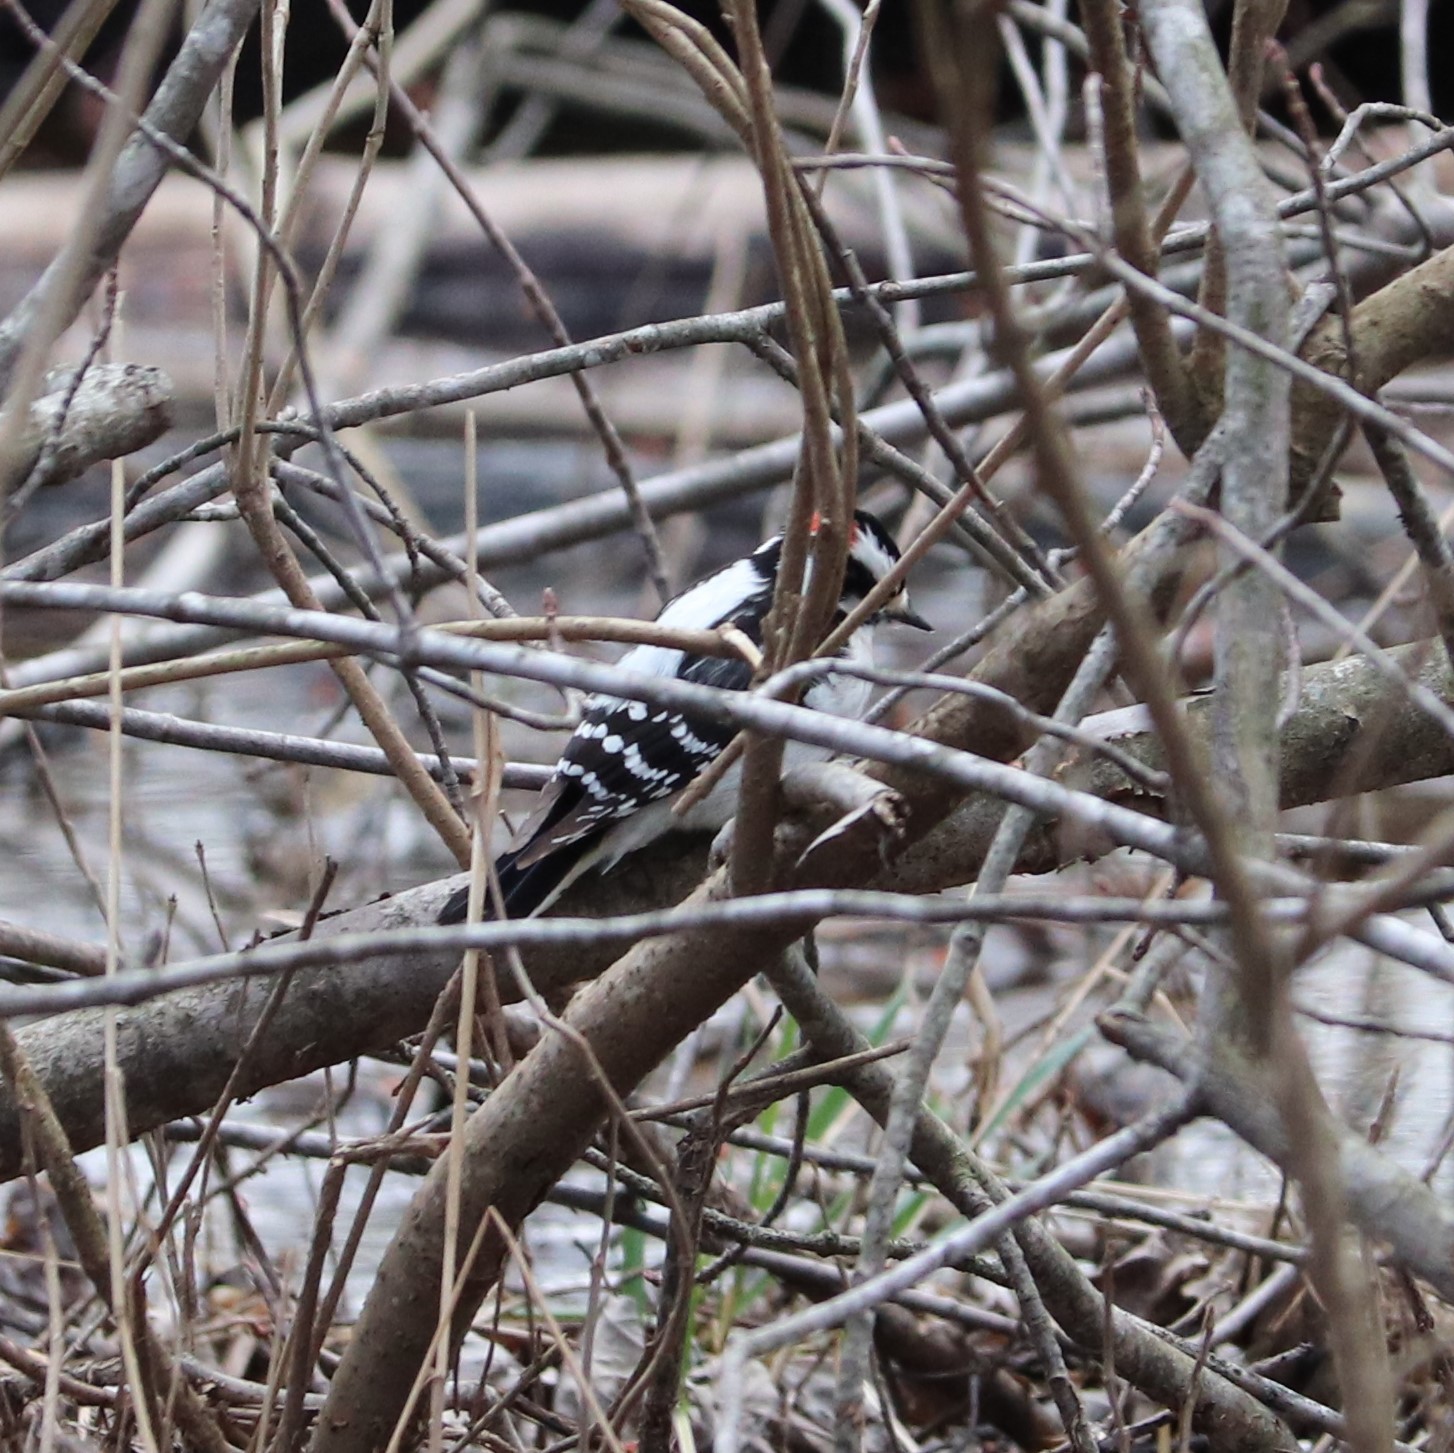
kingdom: Animalia
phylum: Chordata
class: Aves
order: Piciformes
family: Picidae
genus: Dryobates
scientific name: Dryobates pubescens
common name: Downy woodpecker
